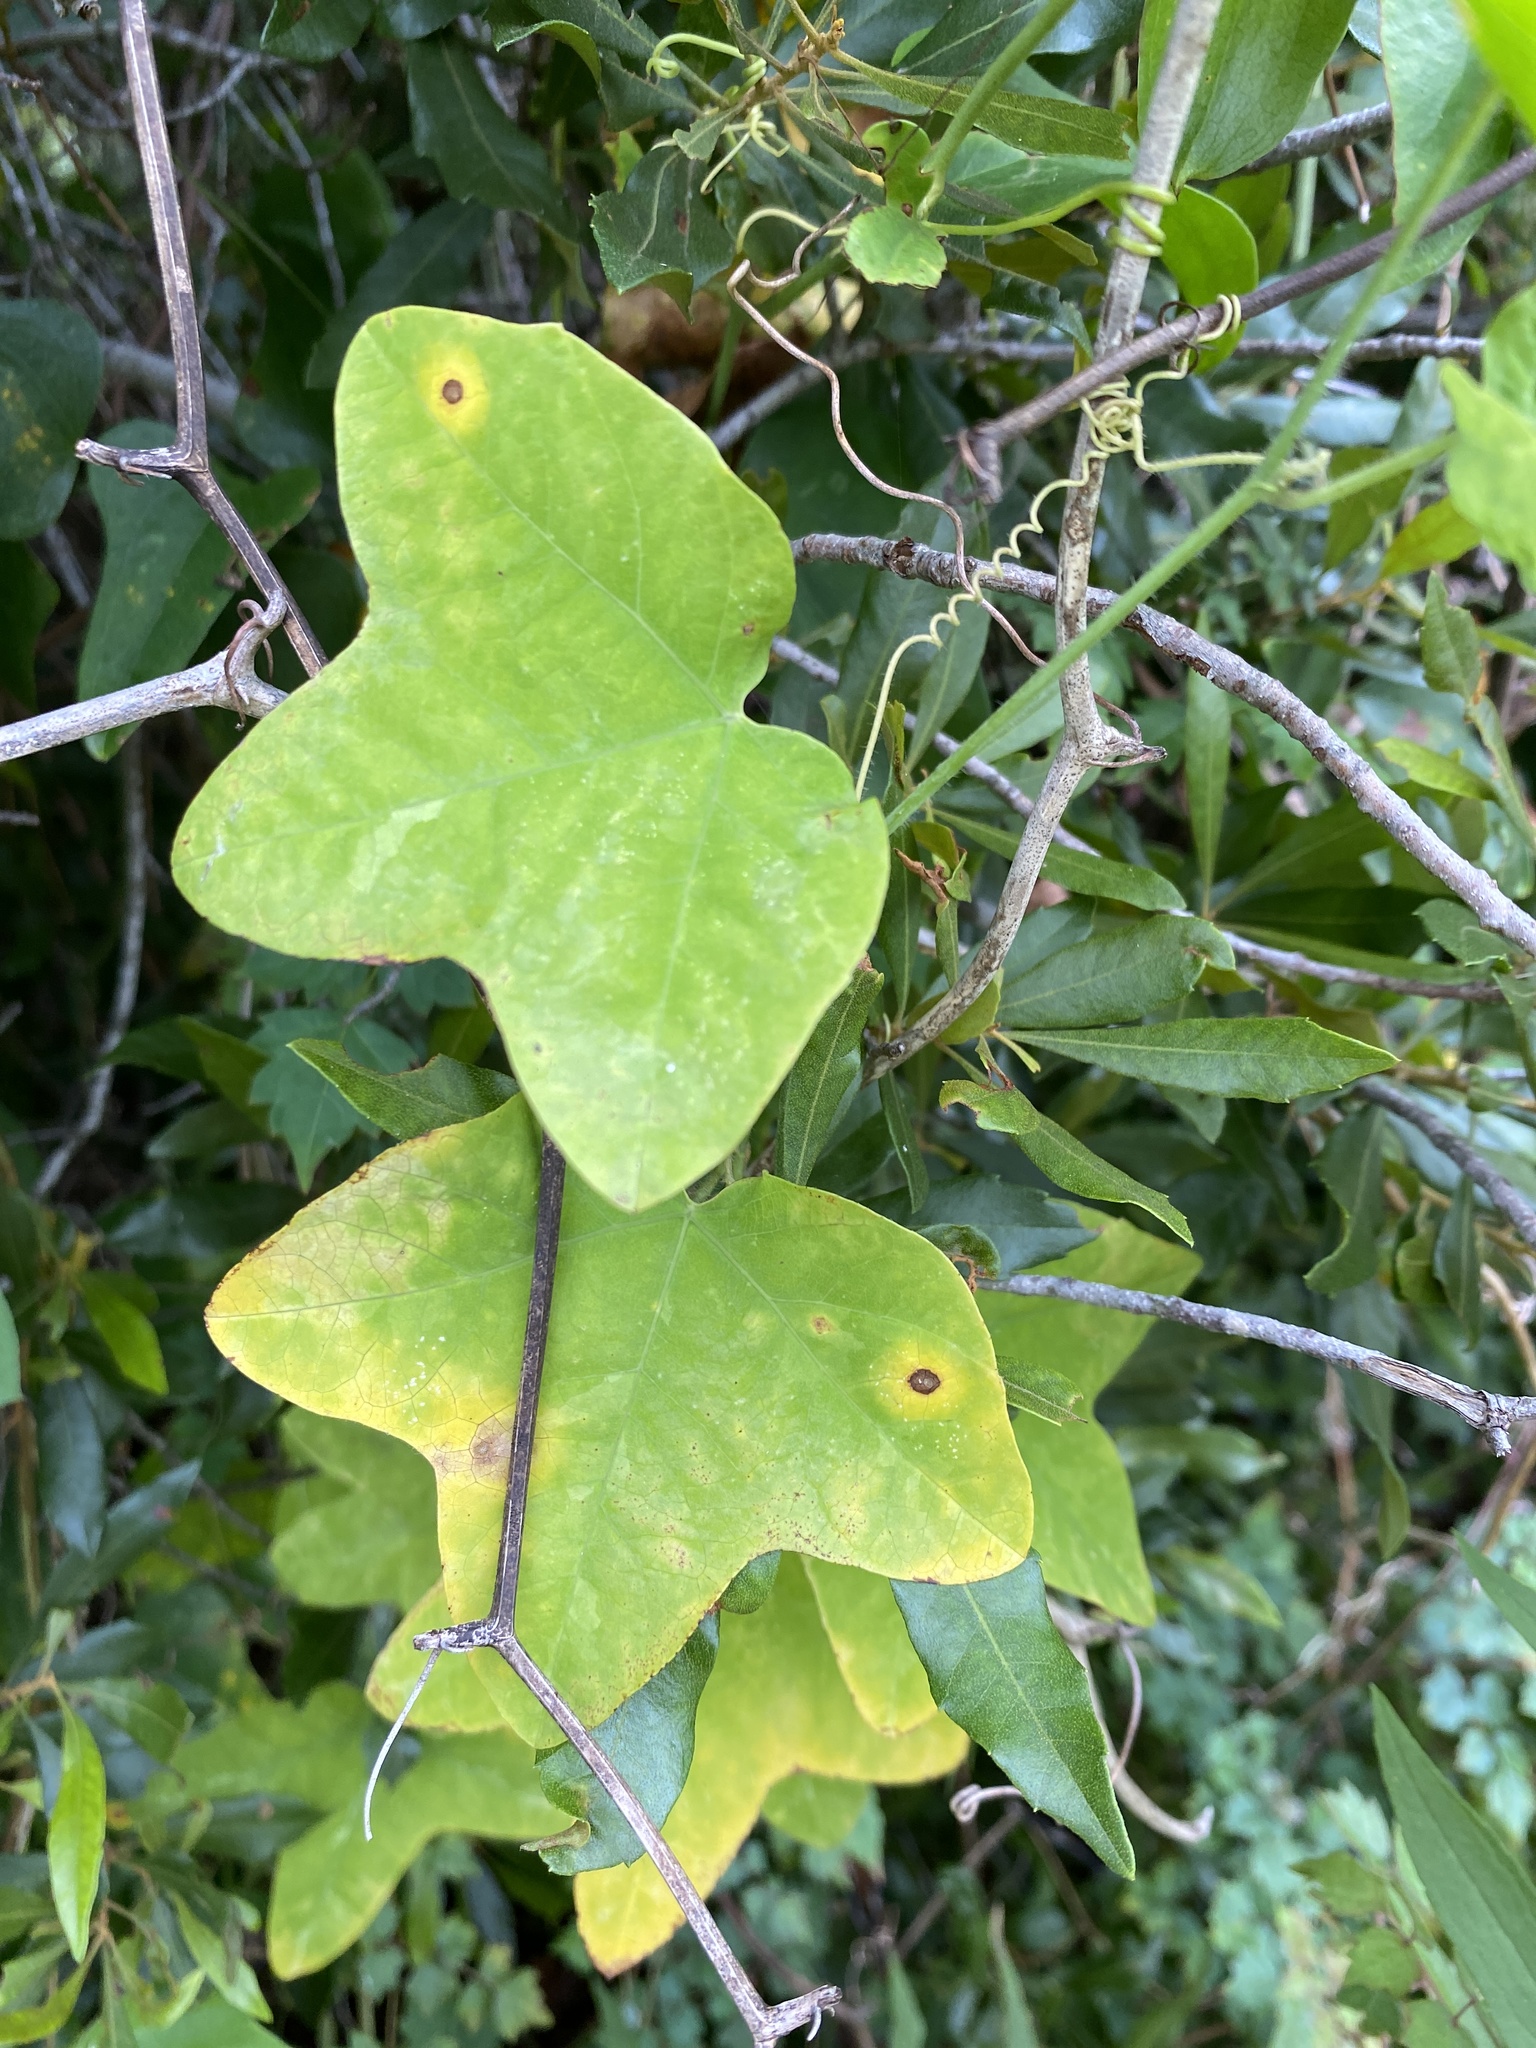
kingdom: Plantae
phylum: Tracheophyta
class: Magnoliopsida
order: Malpighiales
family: Passifloraceae
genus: Passiflora
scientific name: Passiflora lutea
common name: Yellow passionflower
